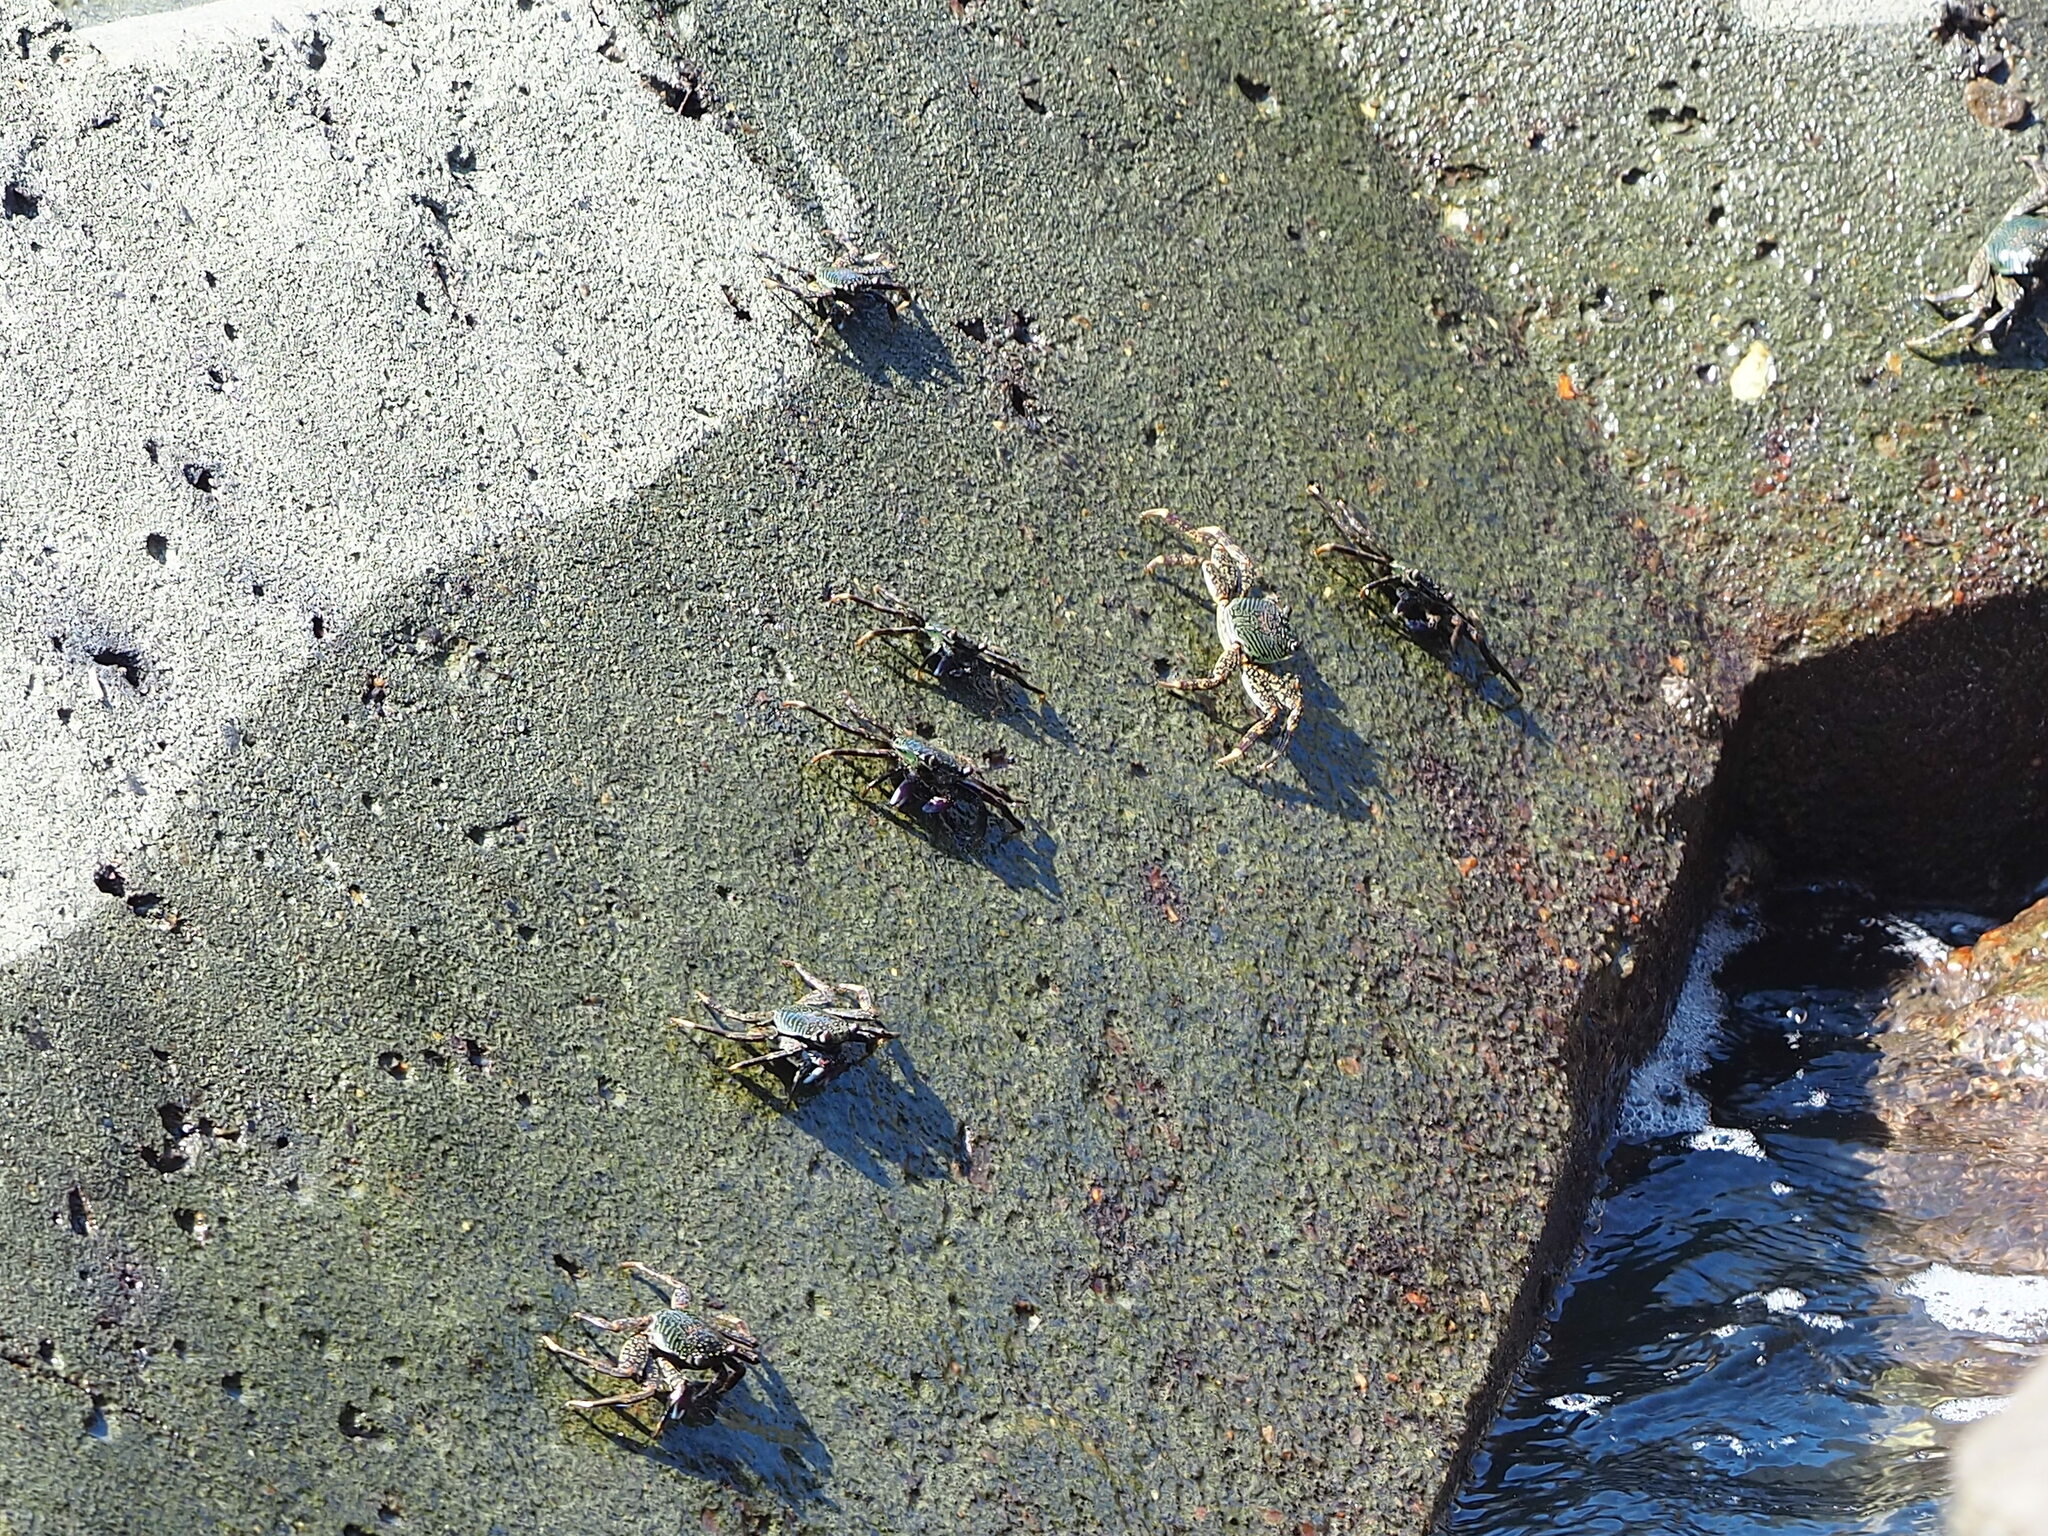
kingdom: Animalia
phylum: Arthropoda
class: Malacostraca
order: Decapoda
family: Grapsidae
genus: Grapsus
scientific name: Grapsus albolineatus
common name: Mottled lightfoot crab
